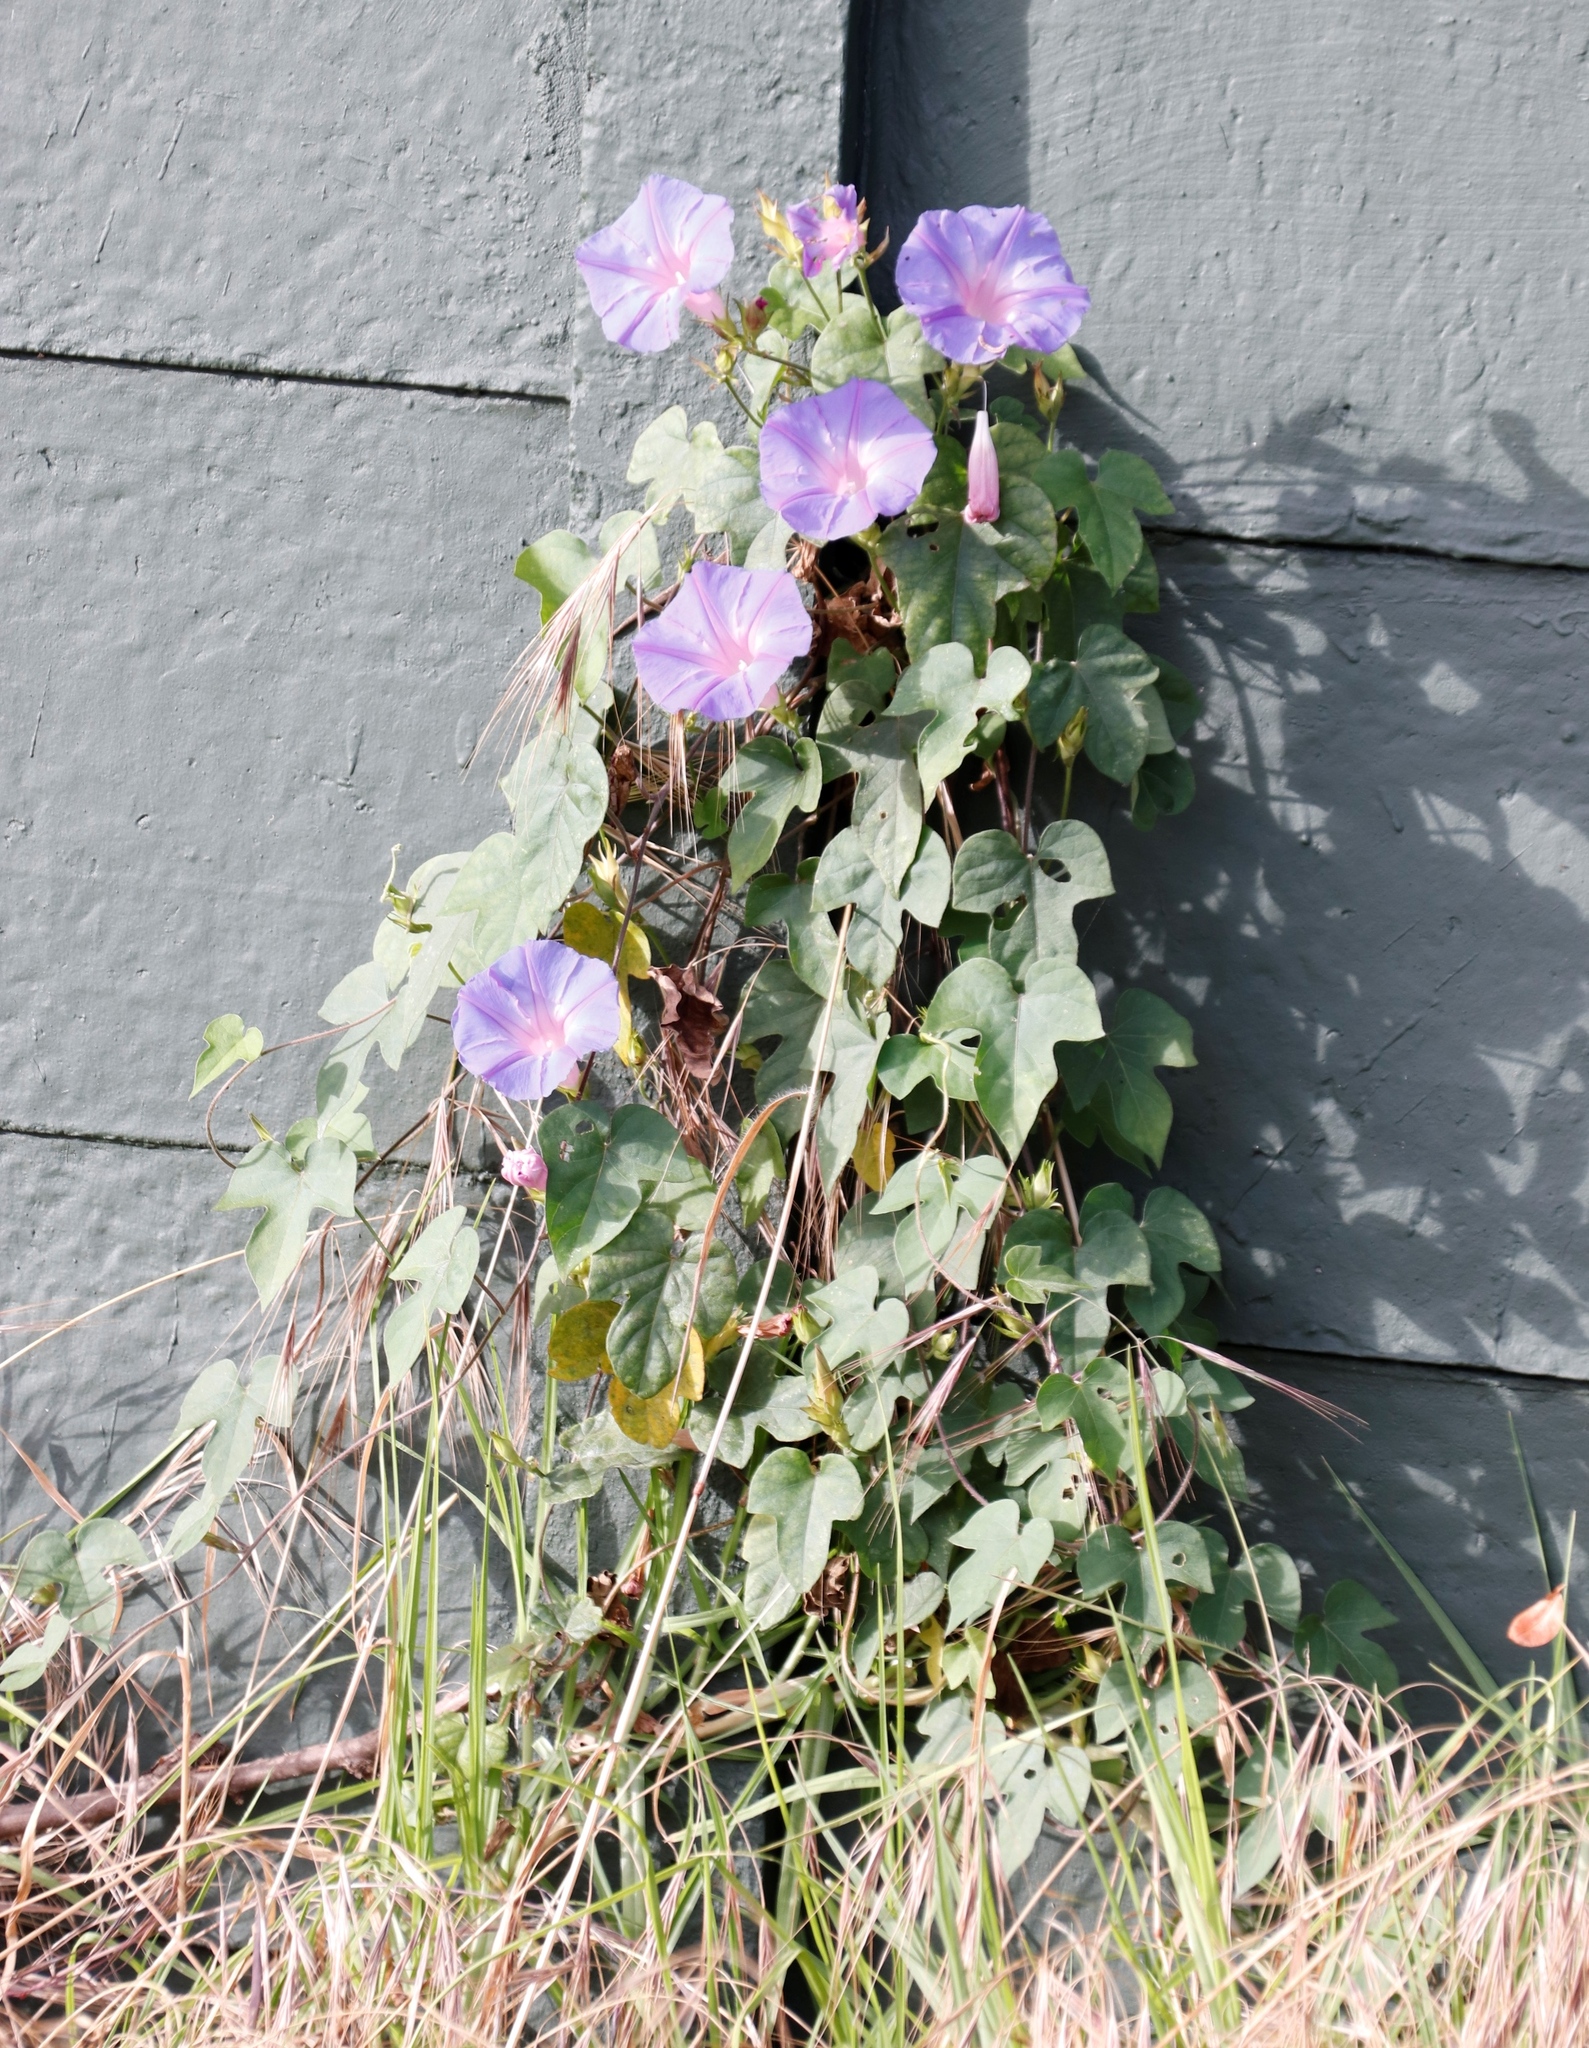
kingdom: Plantae
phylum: Tracheophyta
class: Magnoliopsida
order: Solanales
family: Convolvulaceae
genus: Ipomoea
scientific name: Ipomoea indica
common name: Blue dawnflower
